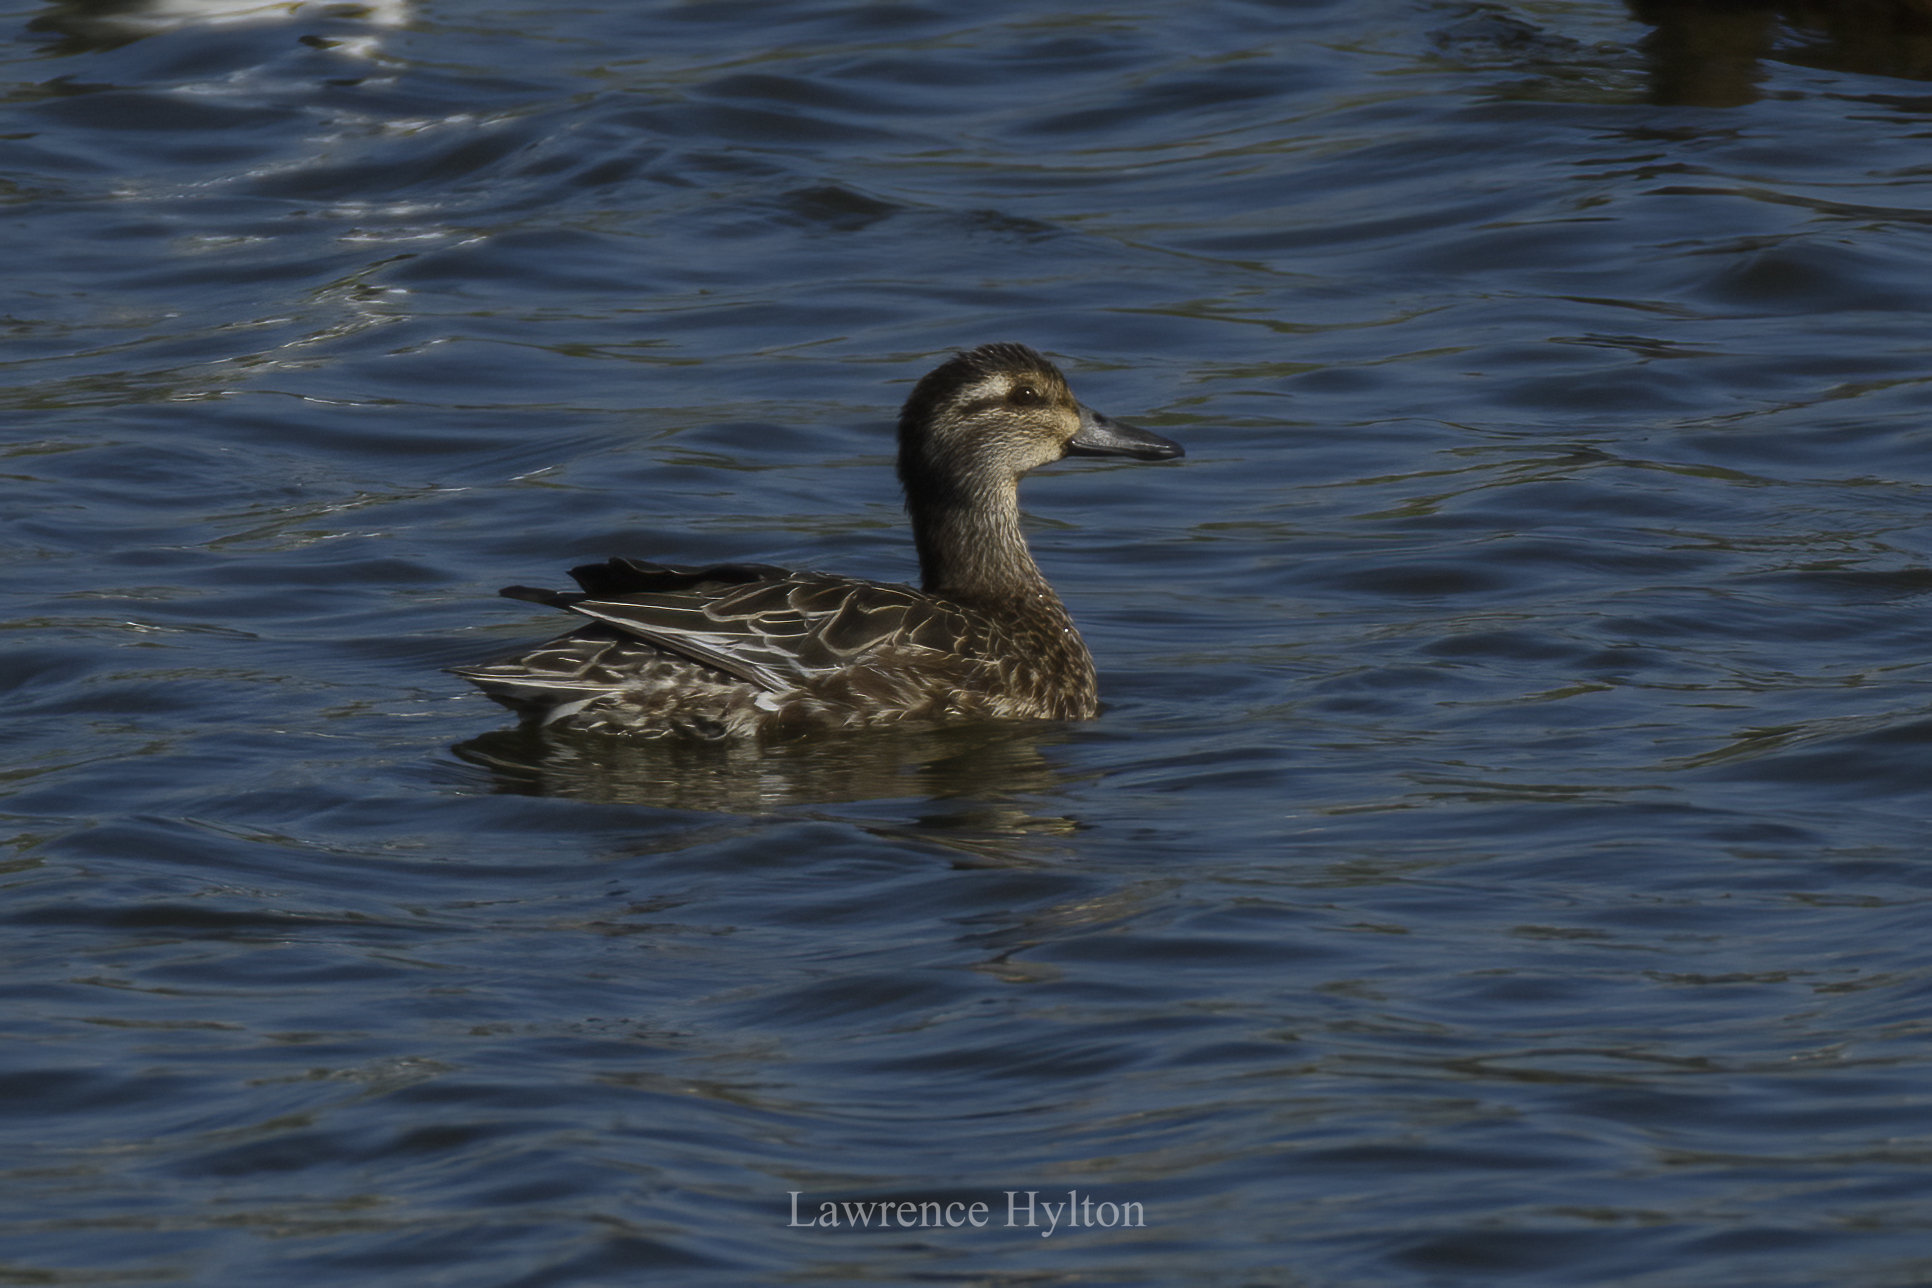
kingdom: Animalia
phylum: Chordata
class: Aves
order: Anseriformes
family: Anatidae
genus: Anas
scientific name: Anas crecca
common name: Eurasian teal
